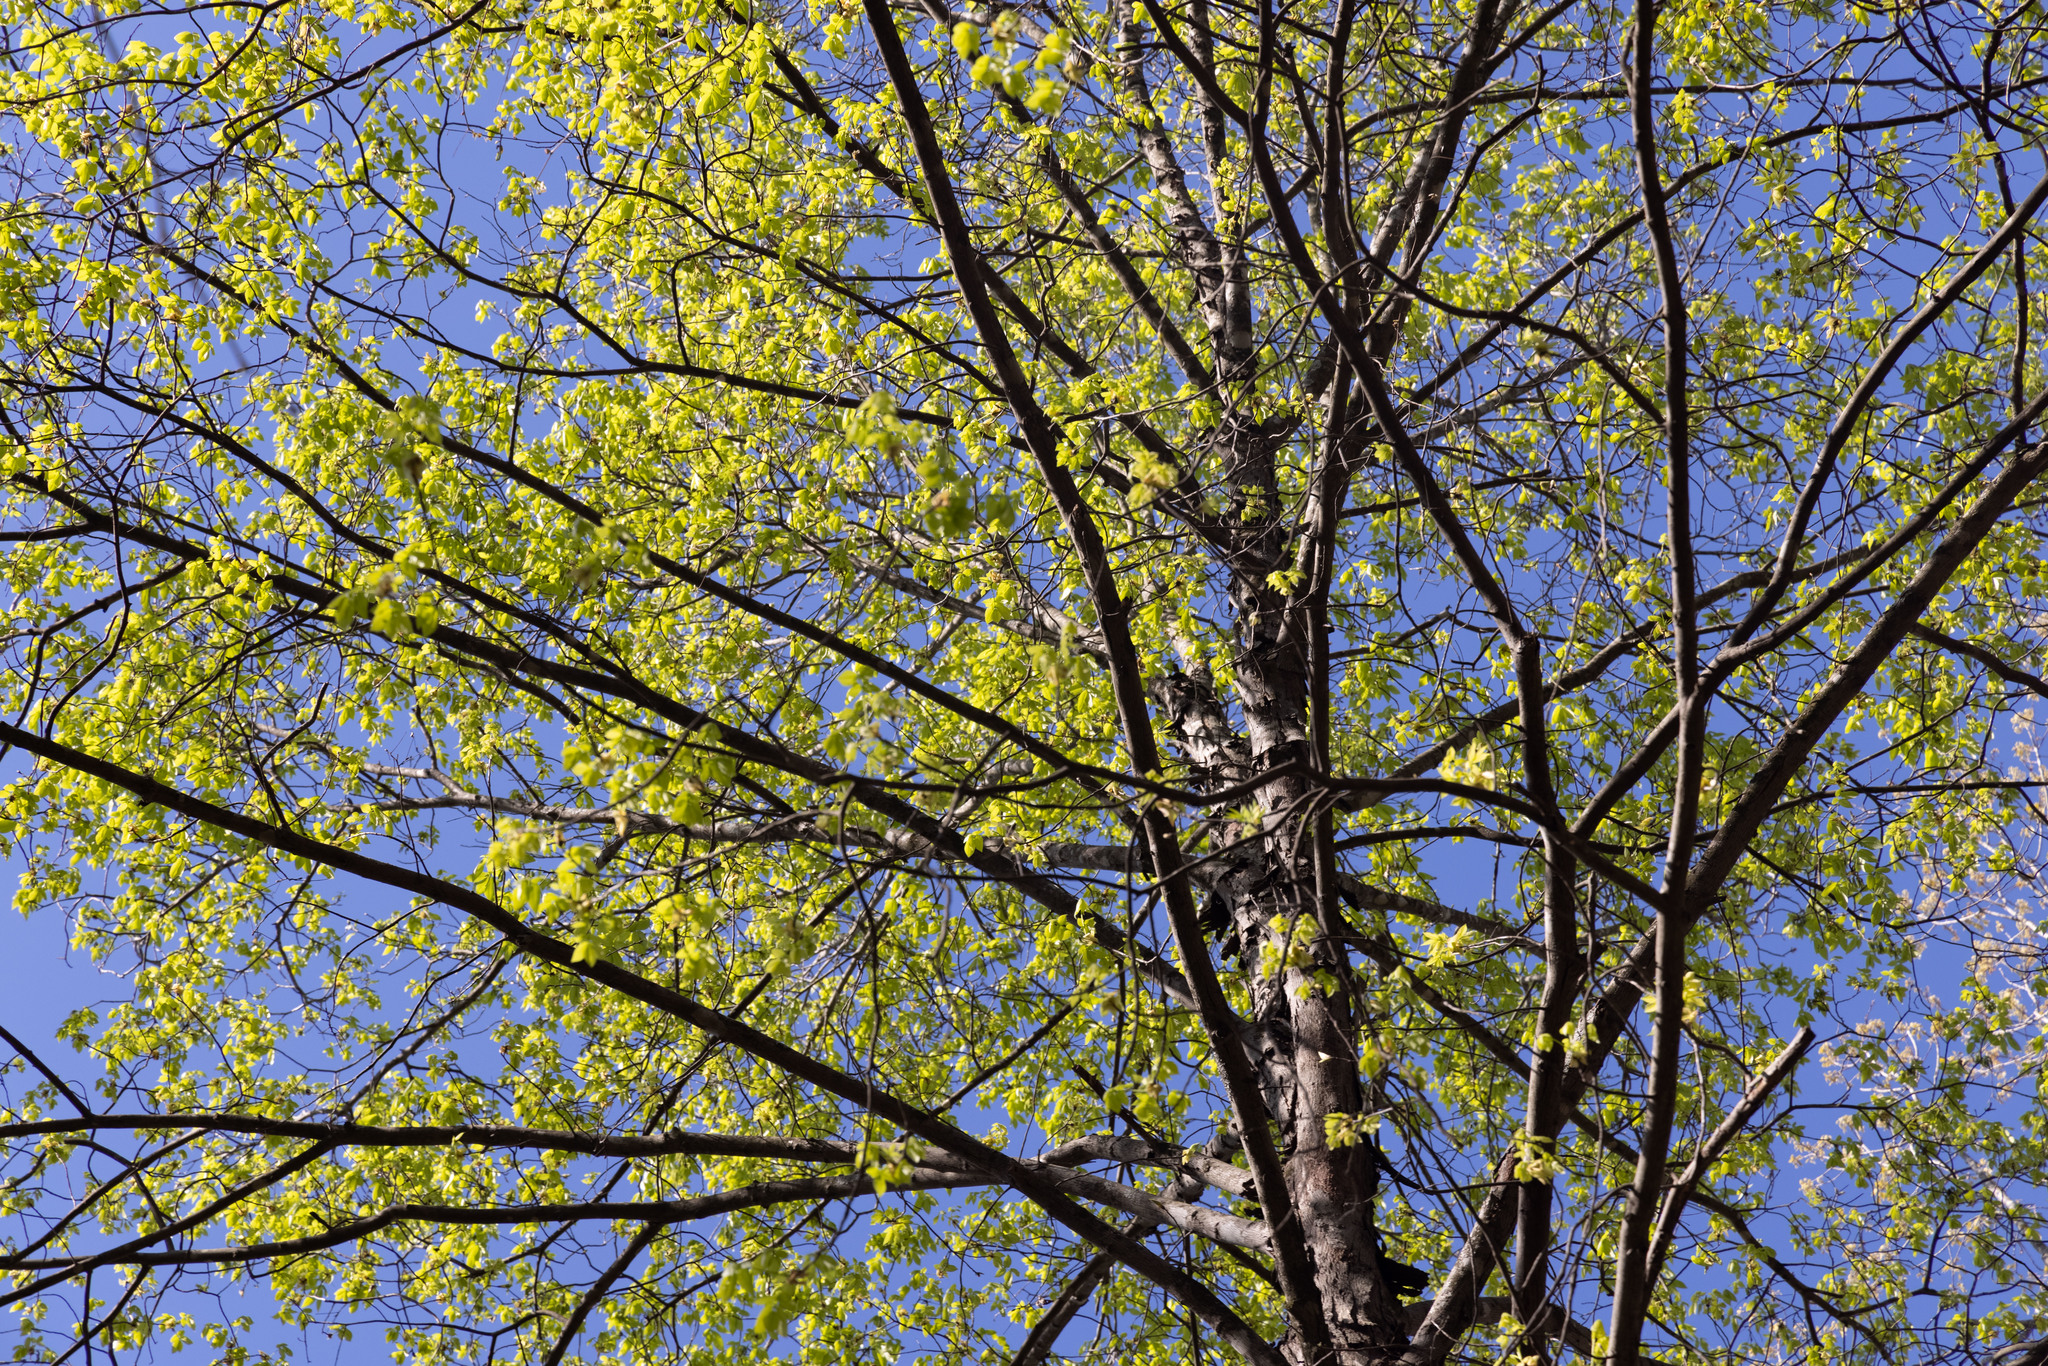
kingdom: Plantae
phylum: Tracheophyta
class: Magnoliopsida
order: Fagales
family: Juglandaceae
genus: Carya
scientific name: Carya ovata
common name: Shagbark hickory
